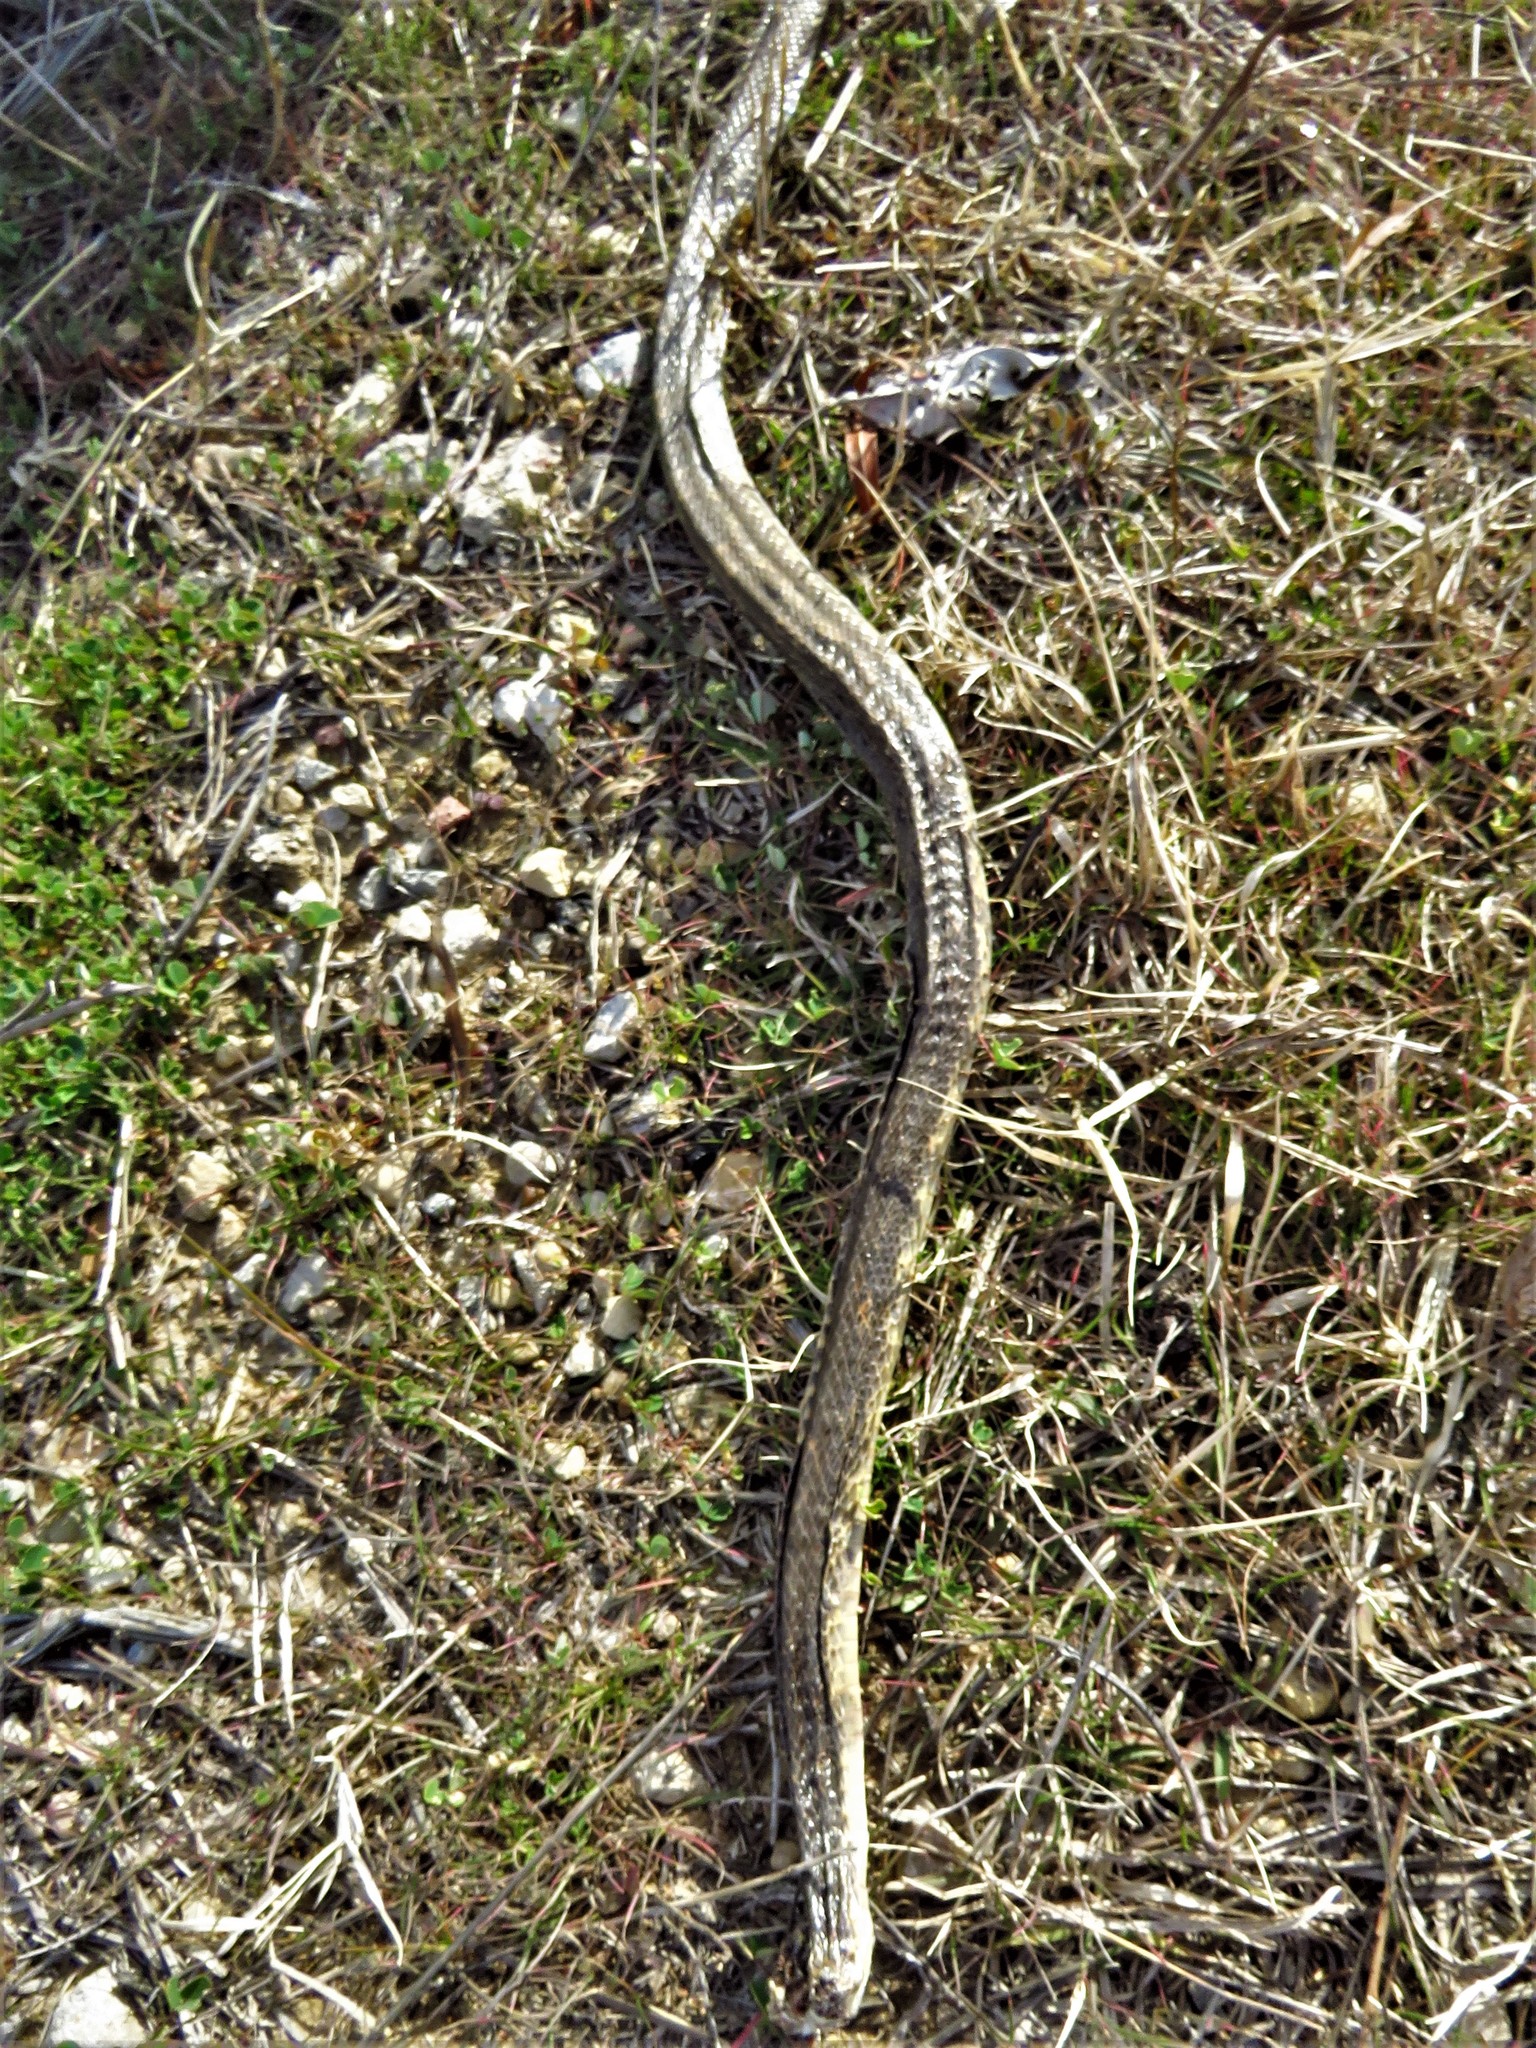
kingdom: Animalia
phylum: Chordata
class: Squamata
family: Colubridae
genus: Pantherophis
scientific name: Pantherophis obsoletus
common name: Black rat snake
